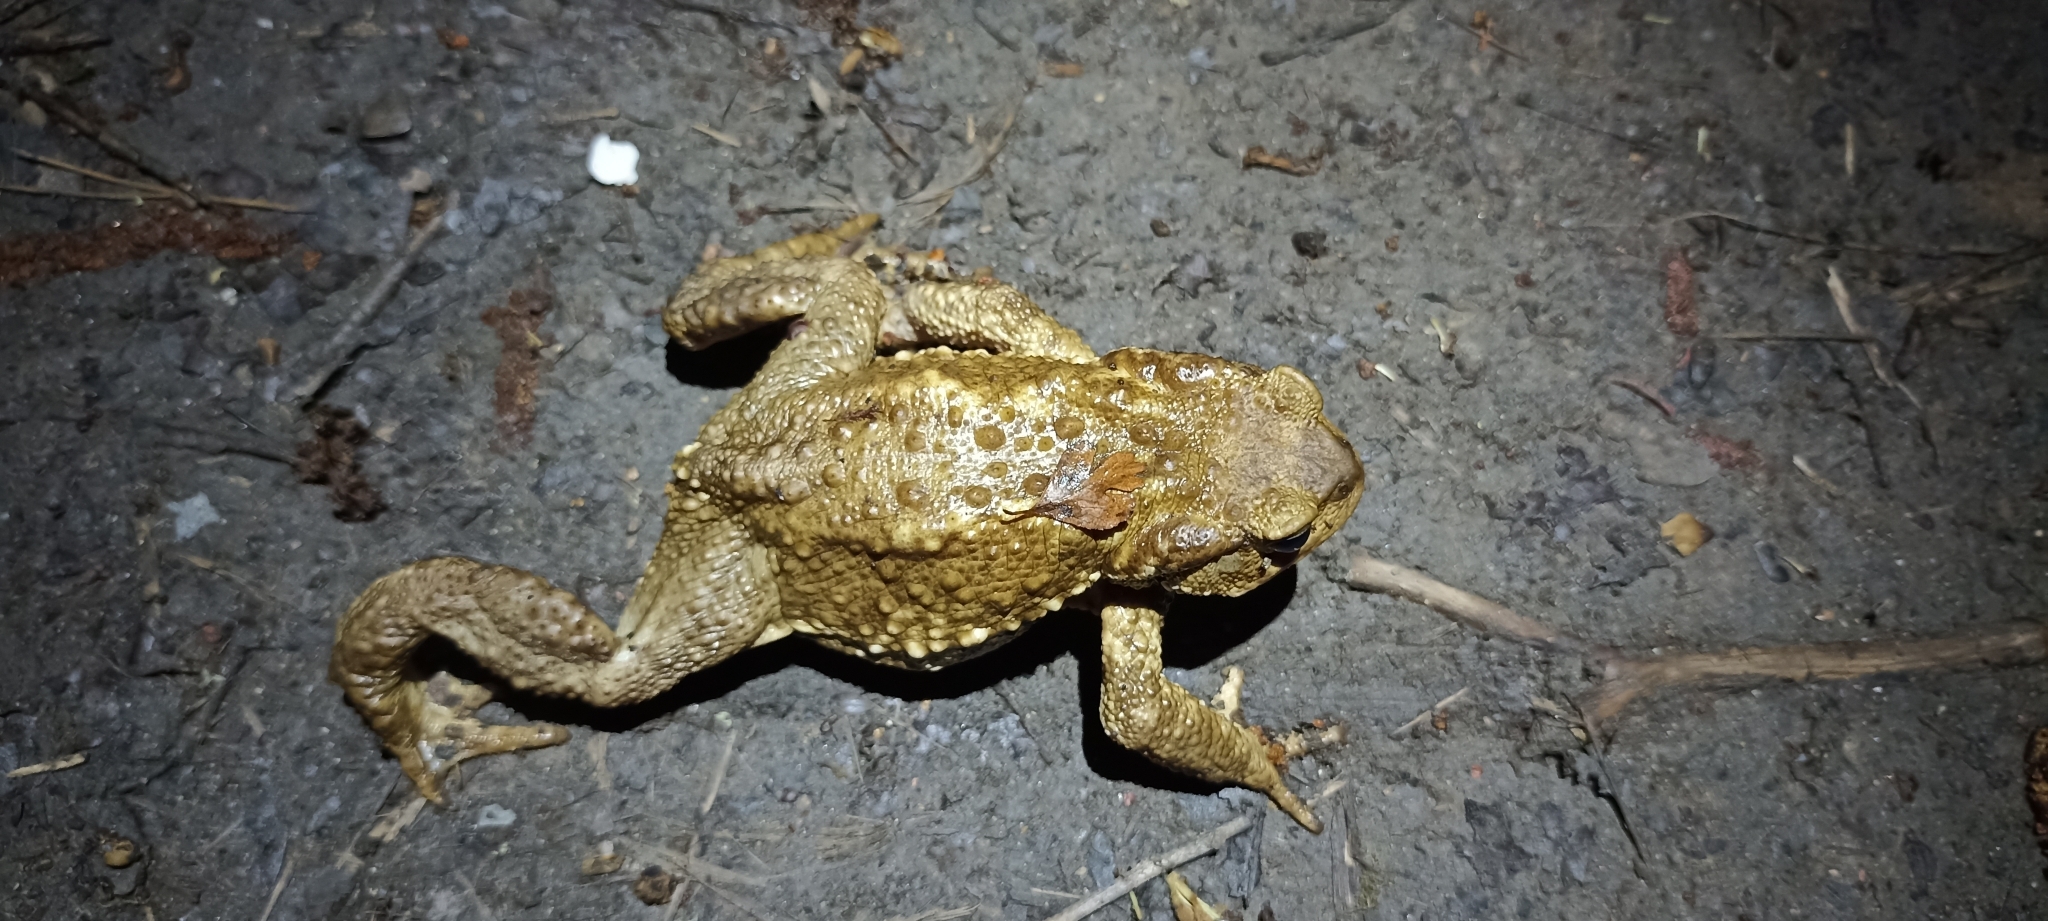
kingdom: Animalia
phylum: Chordata
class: Amphibia
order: Anura
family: Bufonidae
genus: Bufo
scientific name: Bufo spinosus
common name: Western common toad
